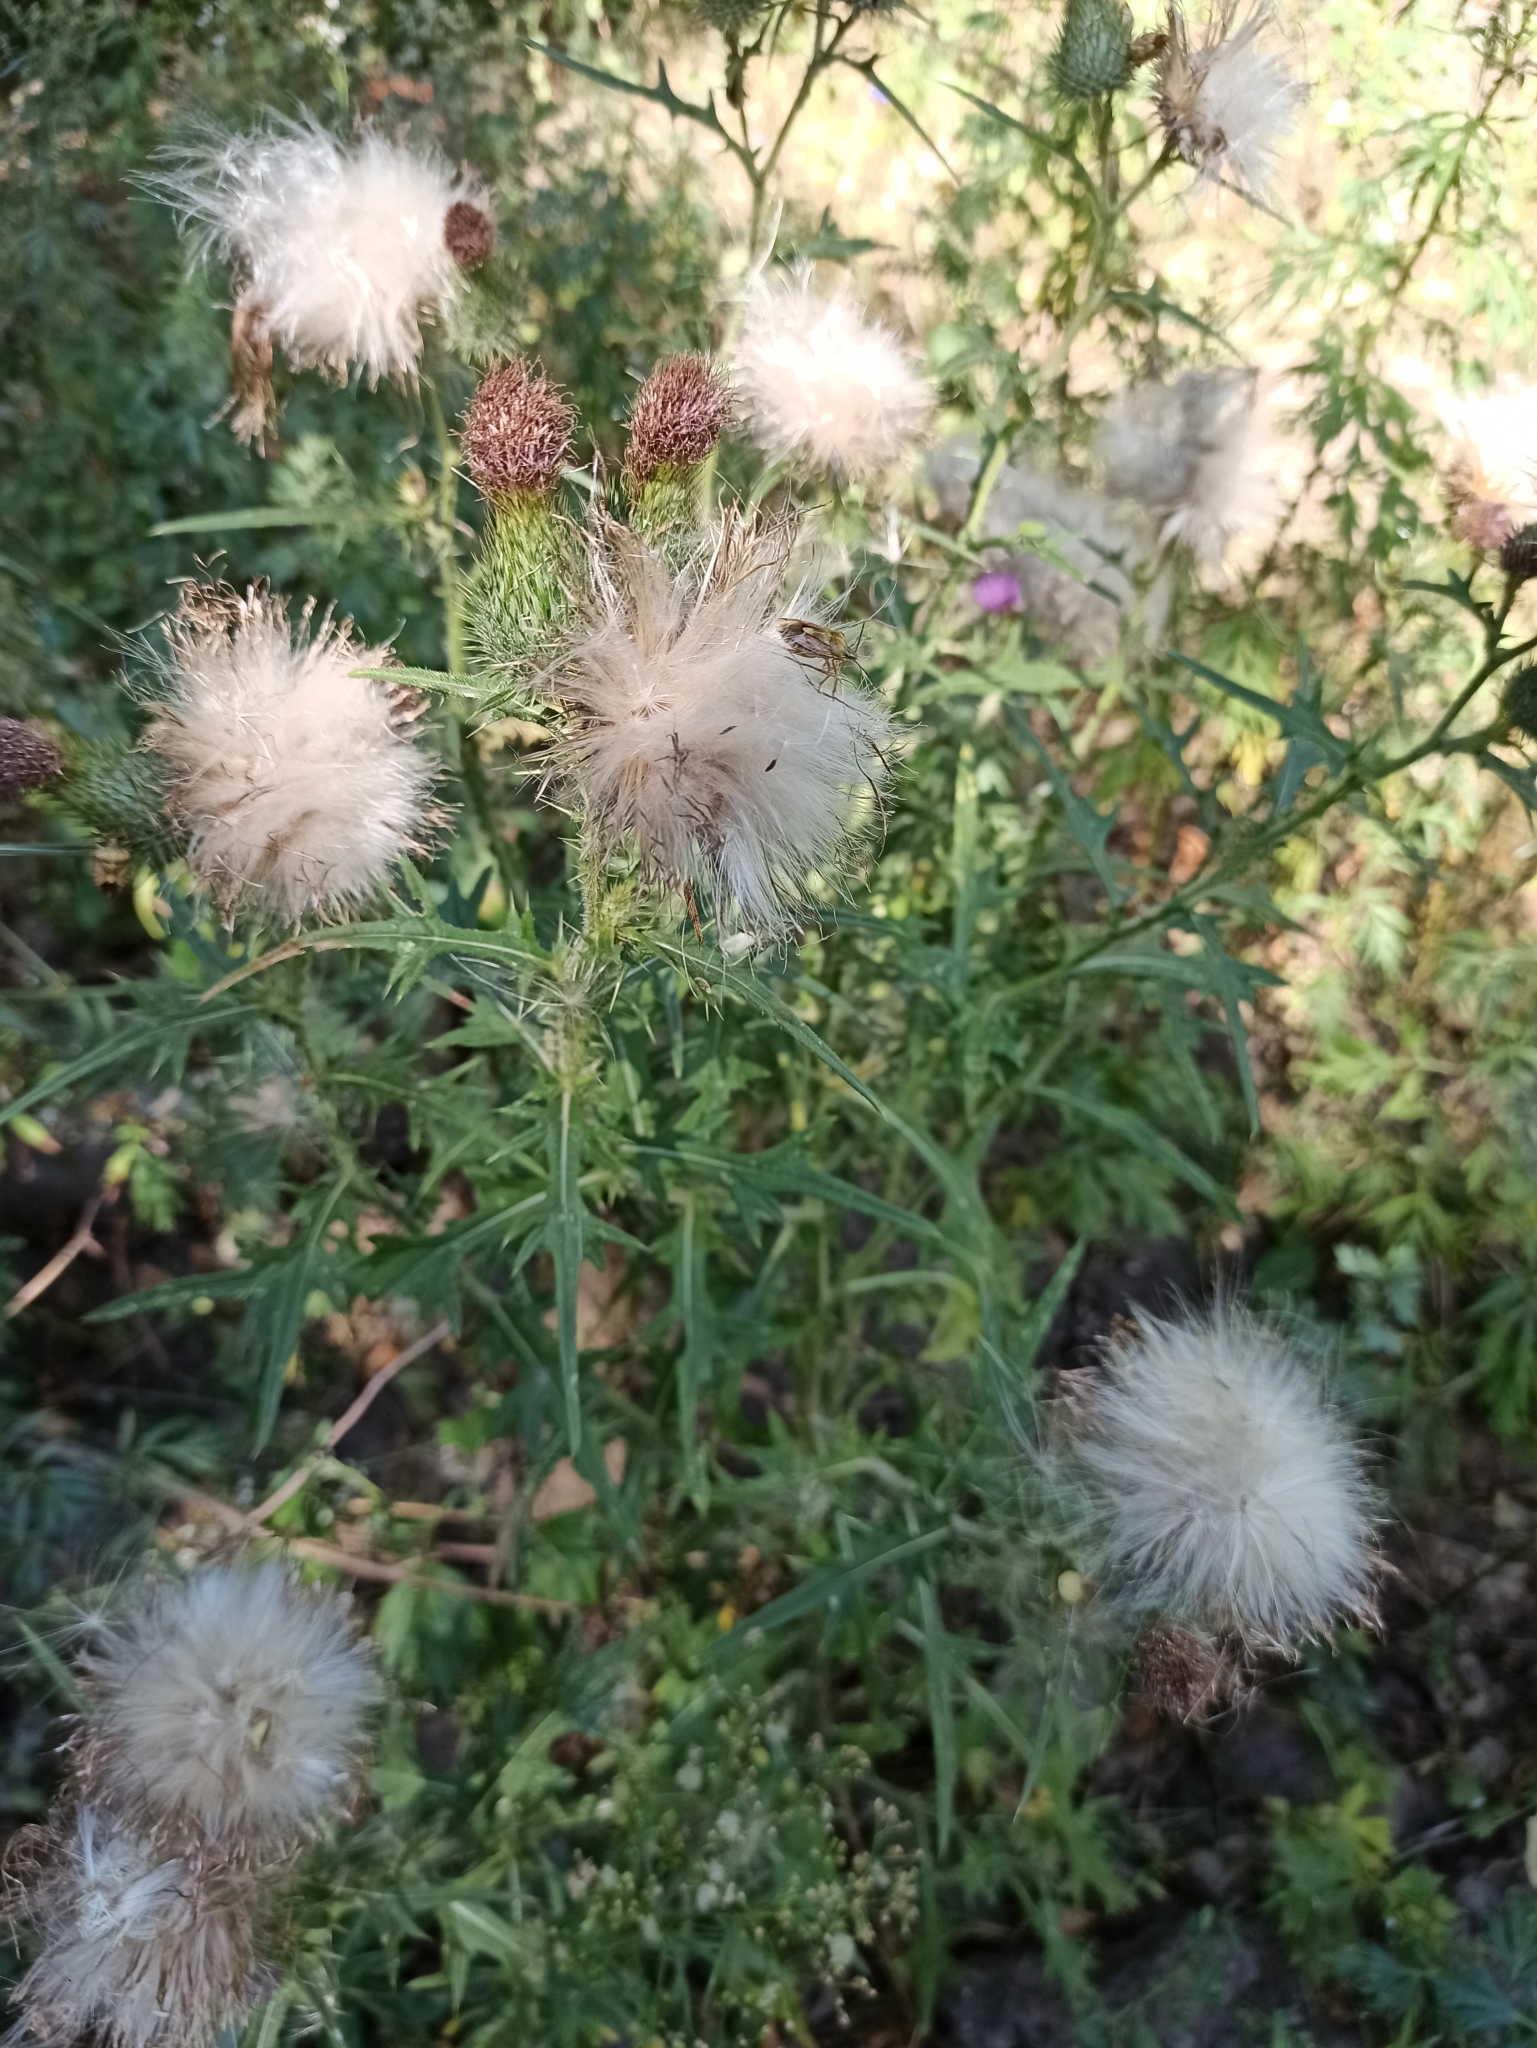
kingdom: Plantae
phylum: Tracheophyta
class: Magnoliopsida
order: Asterales
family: Asteraceae
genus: Cirsium
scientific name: Cirsium vulgare
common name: Bull thistle
